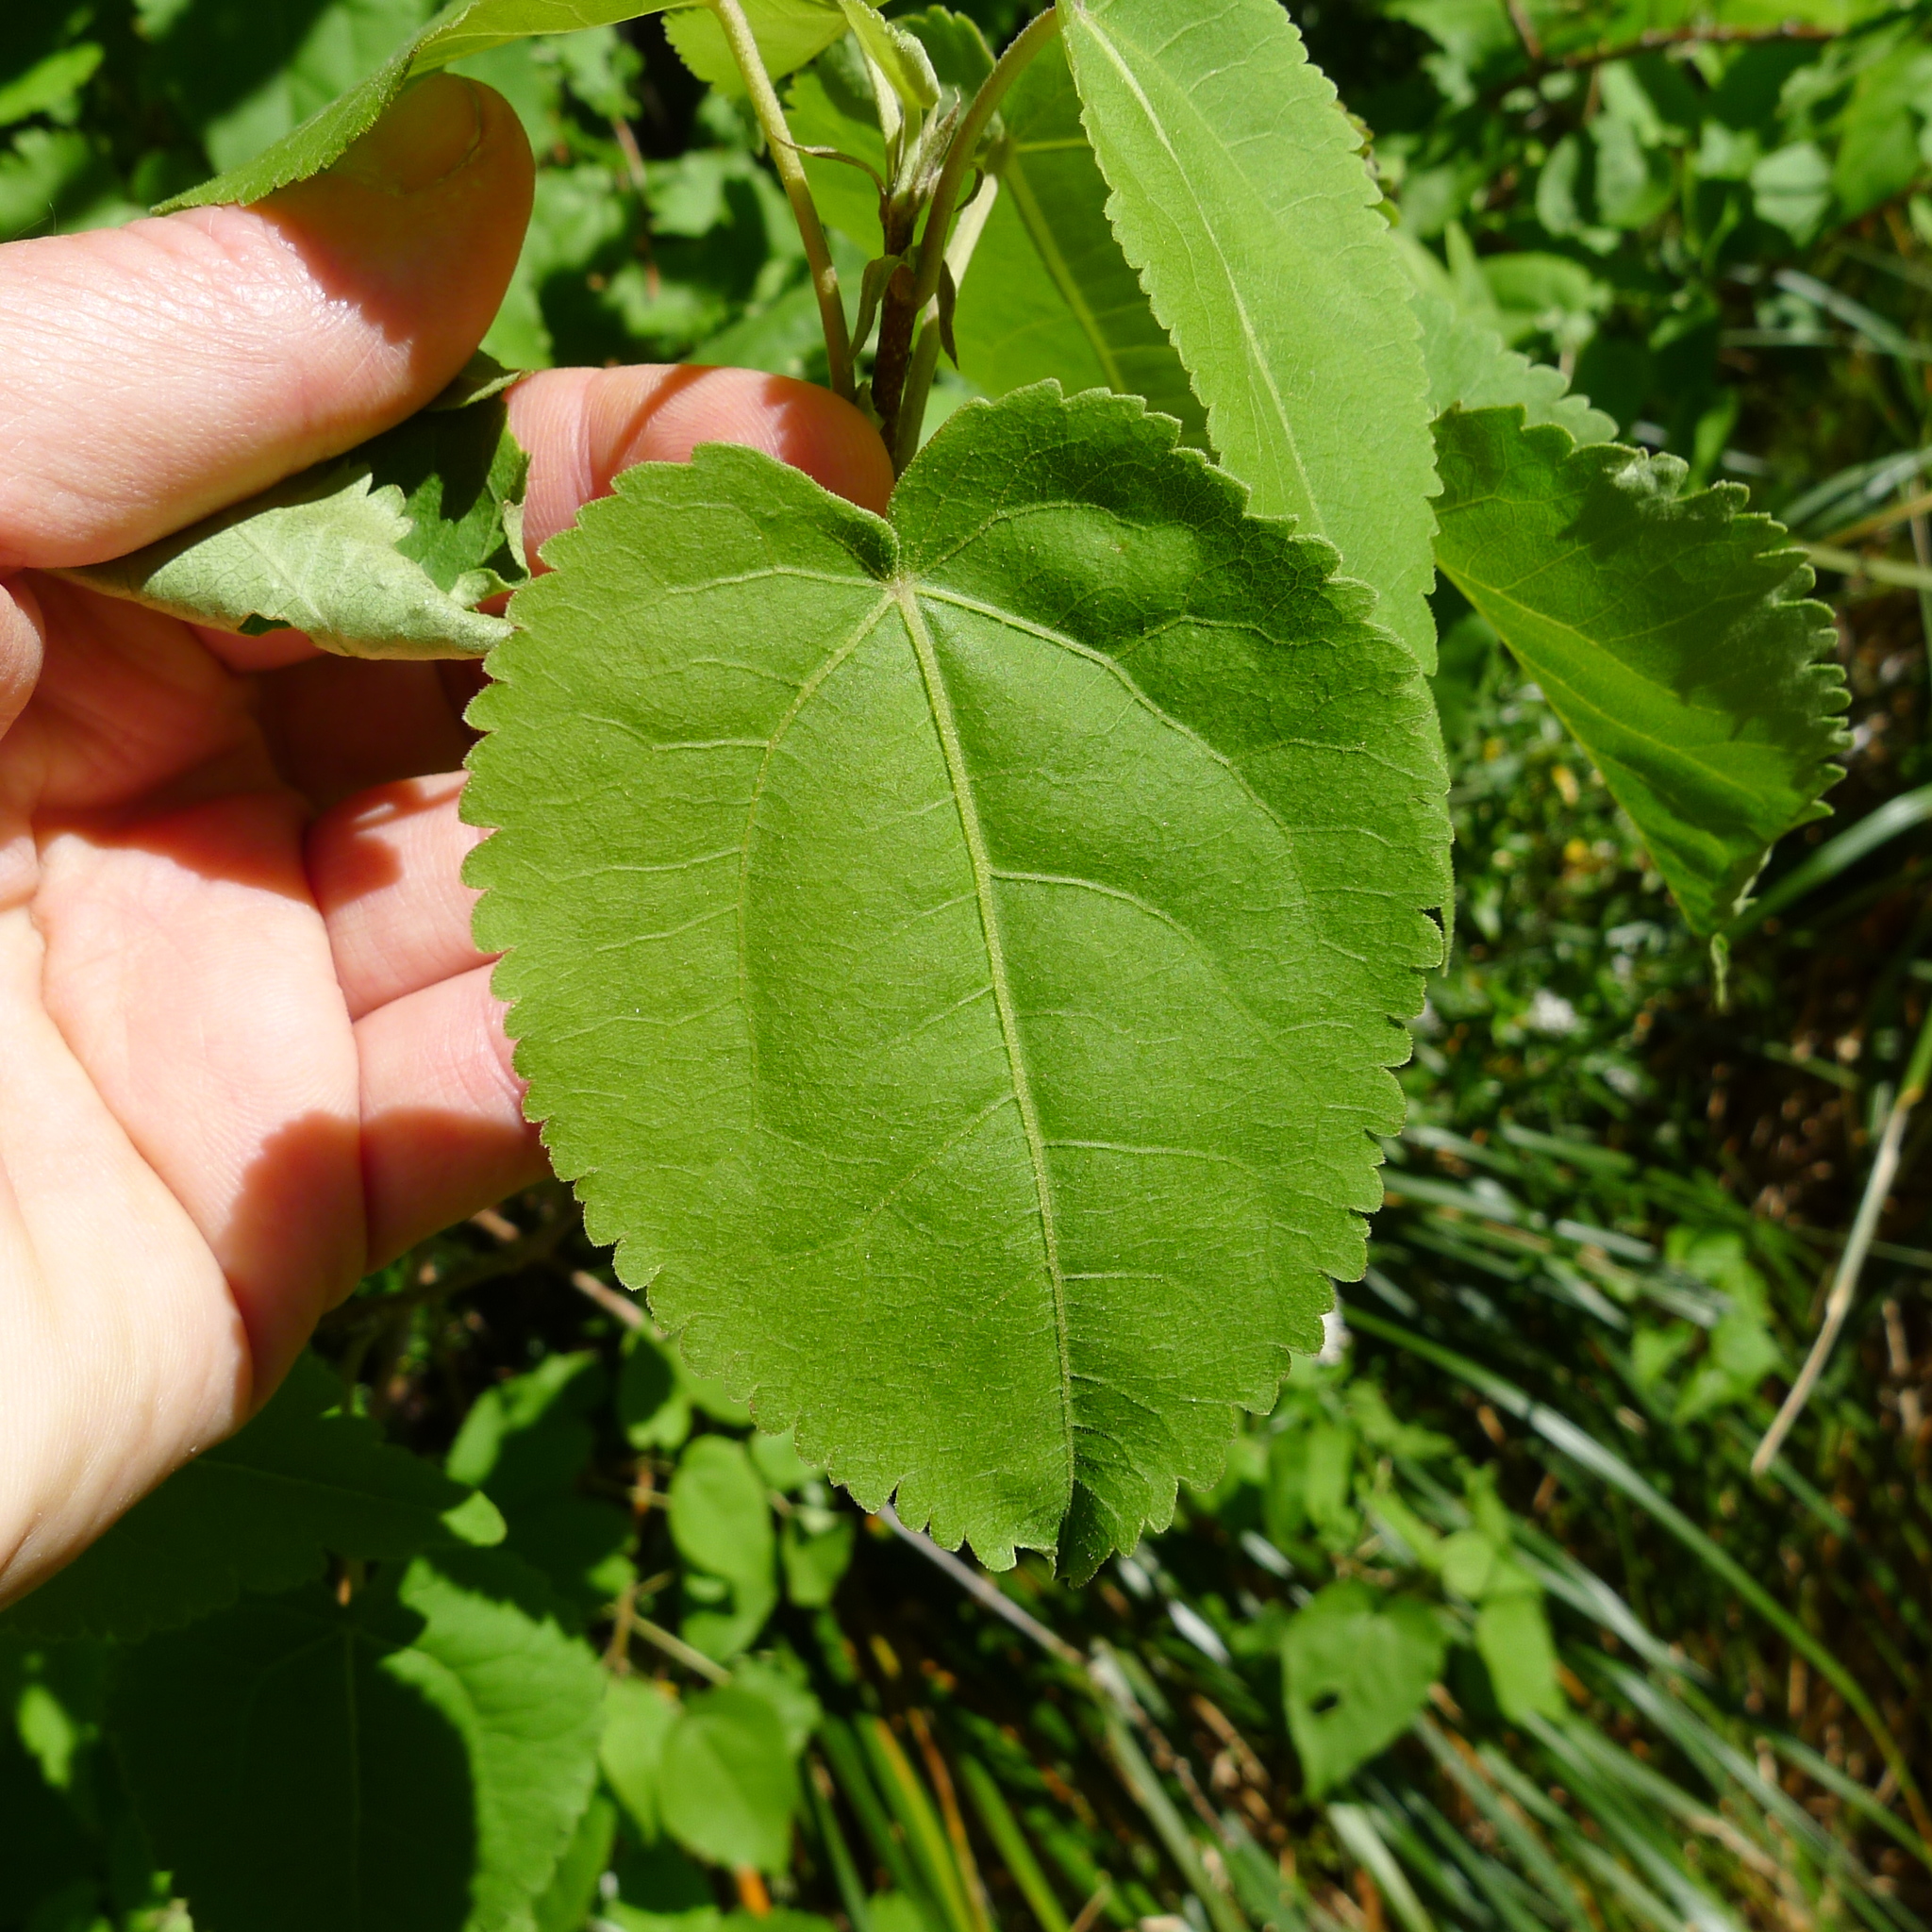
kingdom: Plantae
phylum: Tracheophyta
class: Magnoliopsida
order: Malvales
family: Malvaceae
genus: Hoheria
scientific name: Hoheria glabrata
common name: Mountain-ribbon
